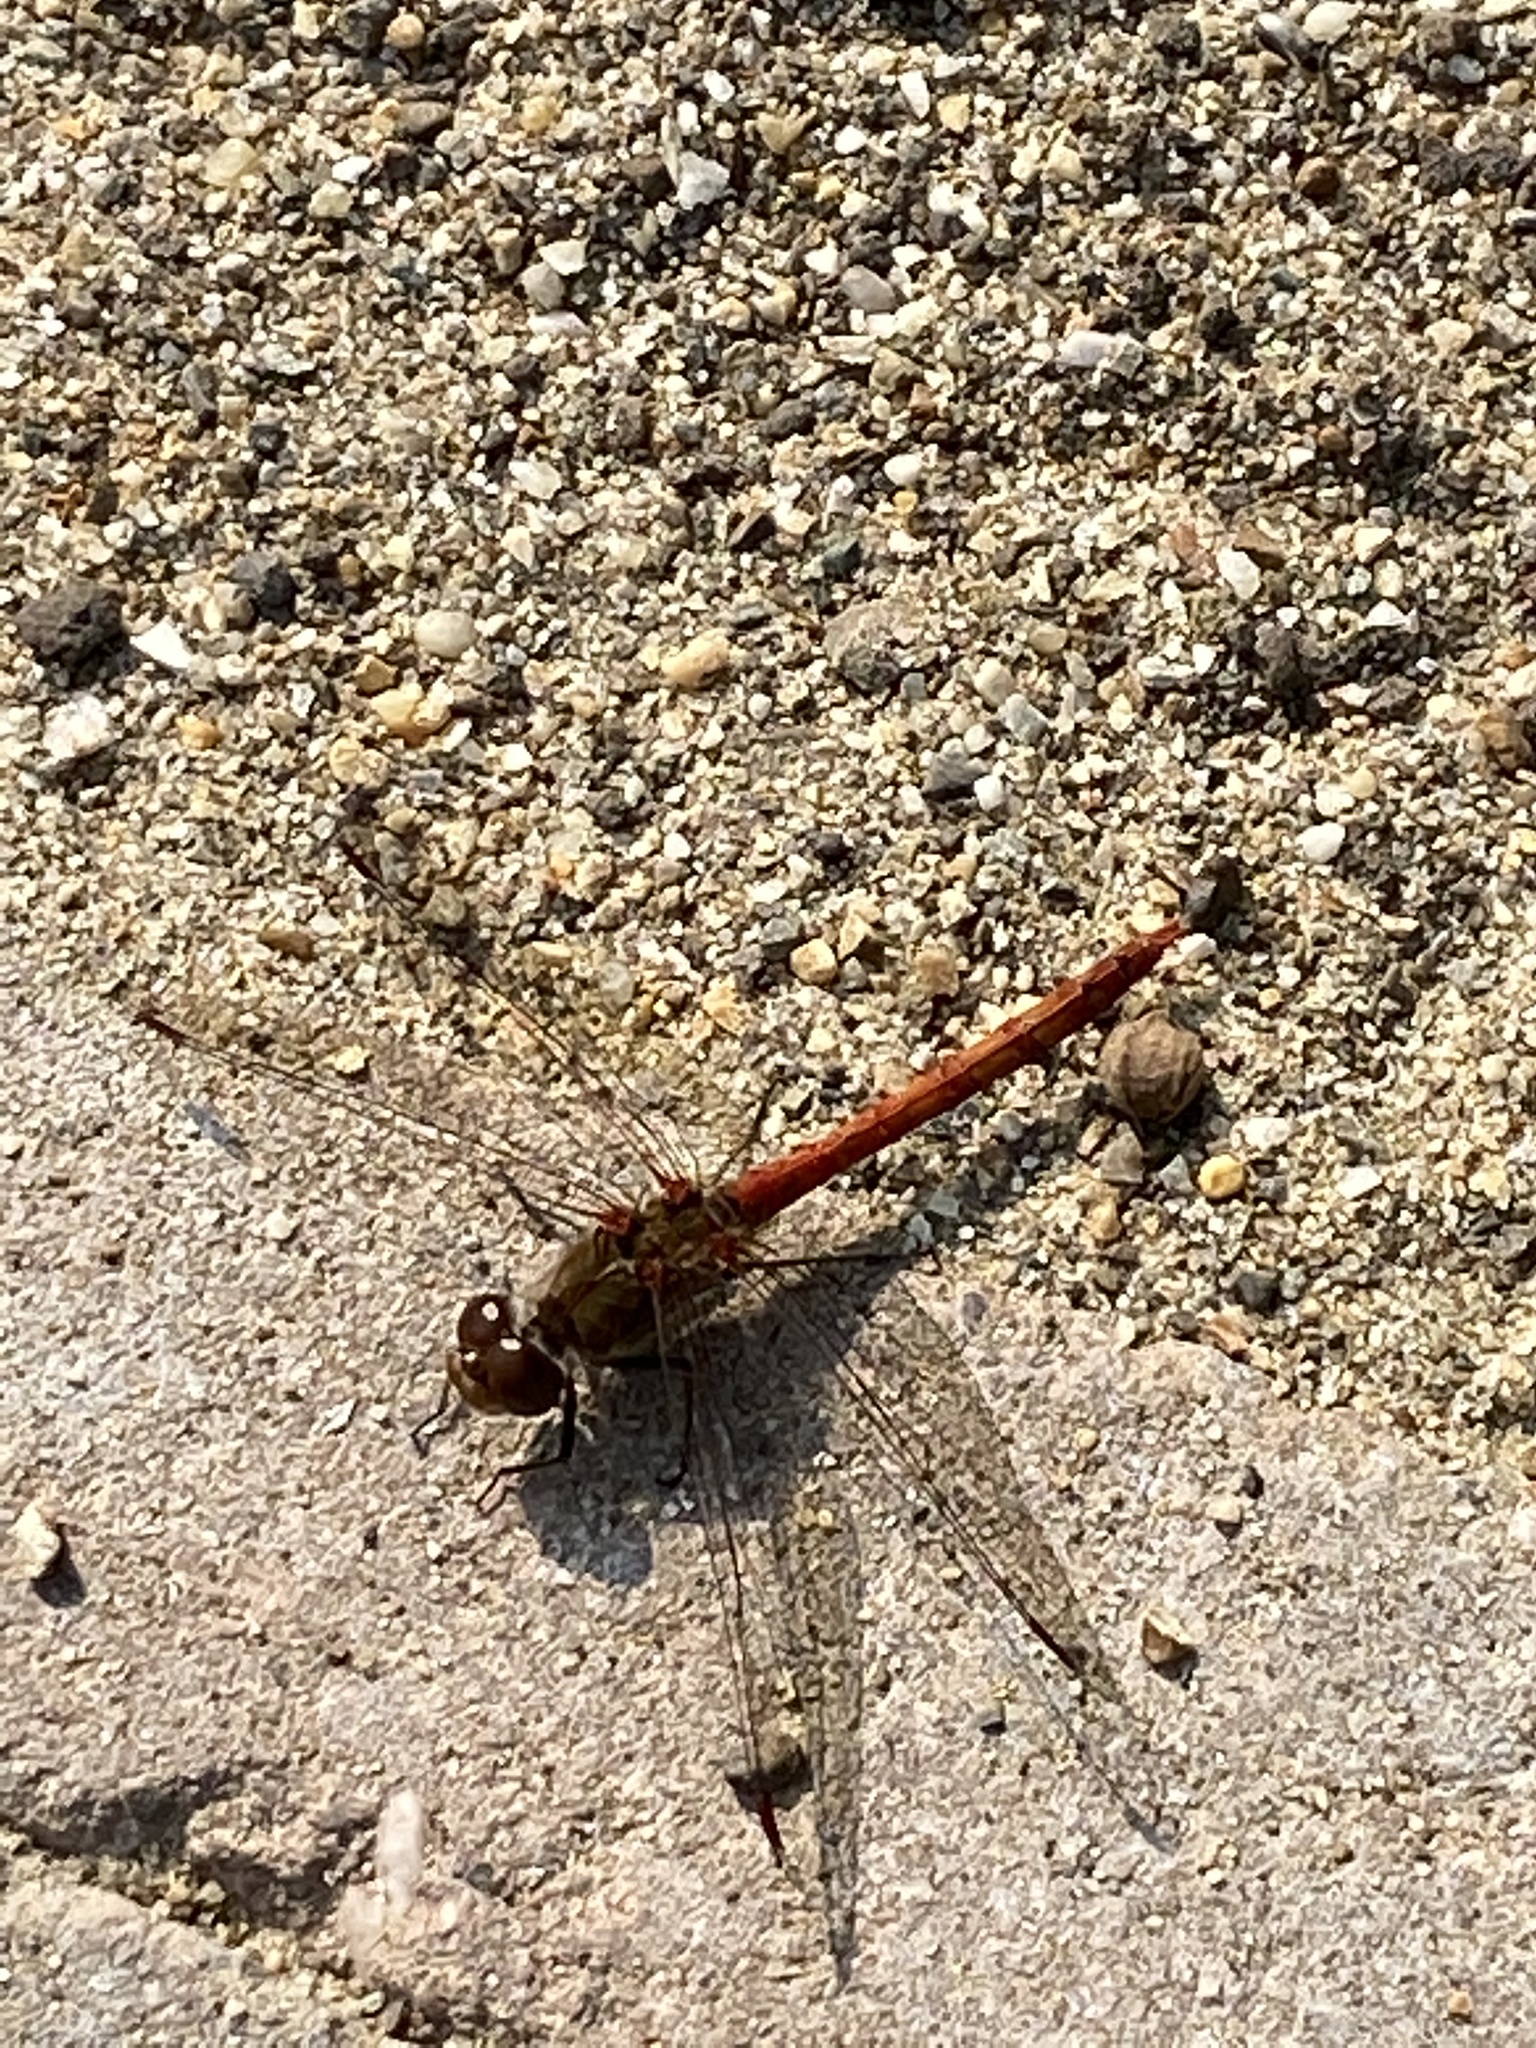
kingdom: Animalia
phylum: Arthropoda
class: Insecta
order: Odonata
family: Libellulidae
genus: Sympetrum
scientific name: Sympetrum striolatum
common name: Common darter
